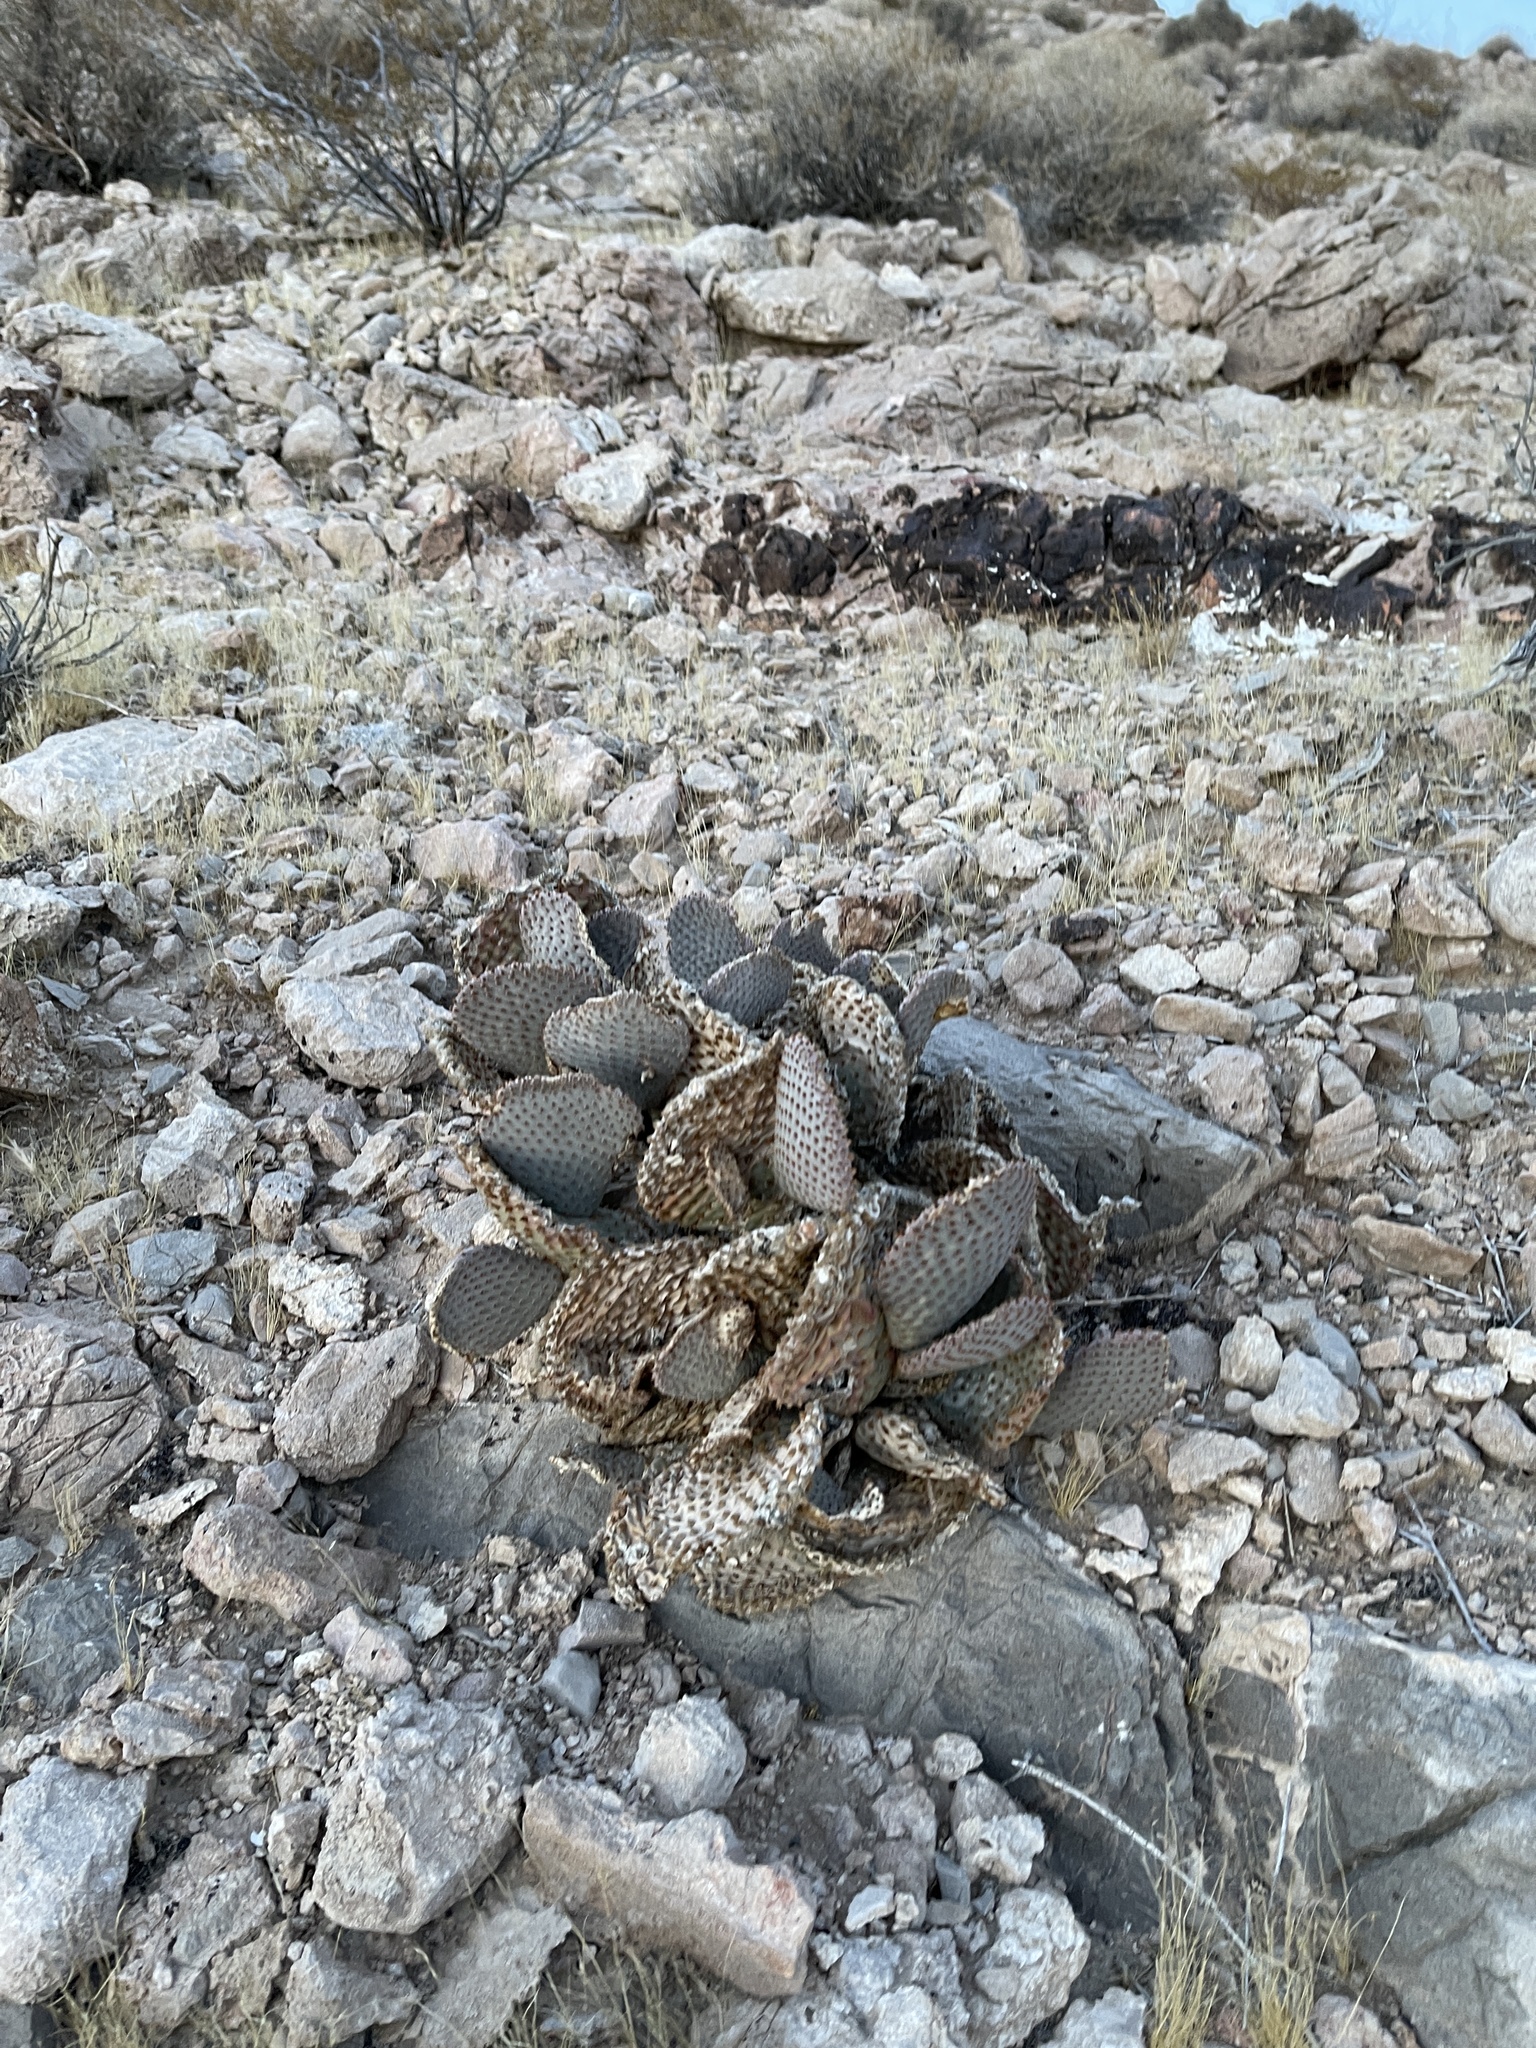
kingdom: Plantae
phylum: Tracheophyta
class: Magnoliopsida
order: Caryophyllales
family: Cactaceae
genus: Opuntia
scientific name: Opuntia basilaris
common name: Beavertail prickly-pear
